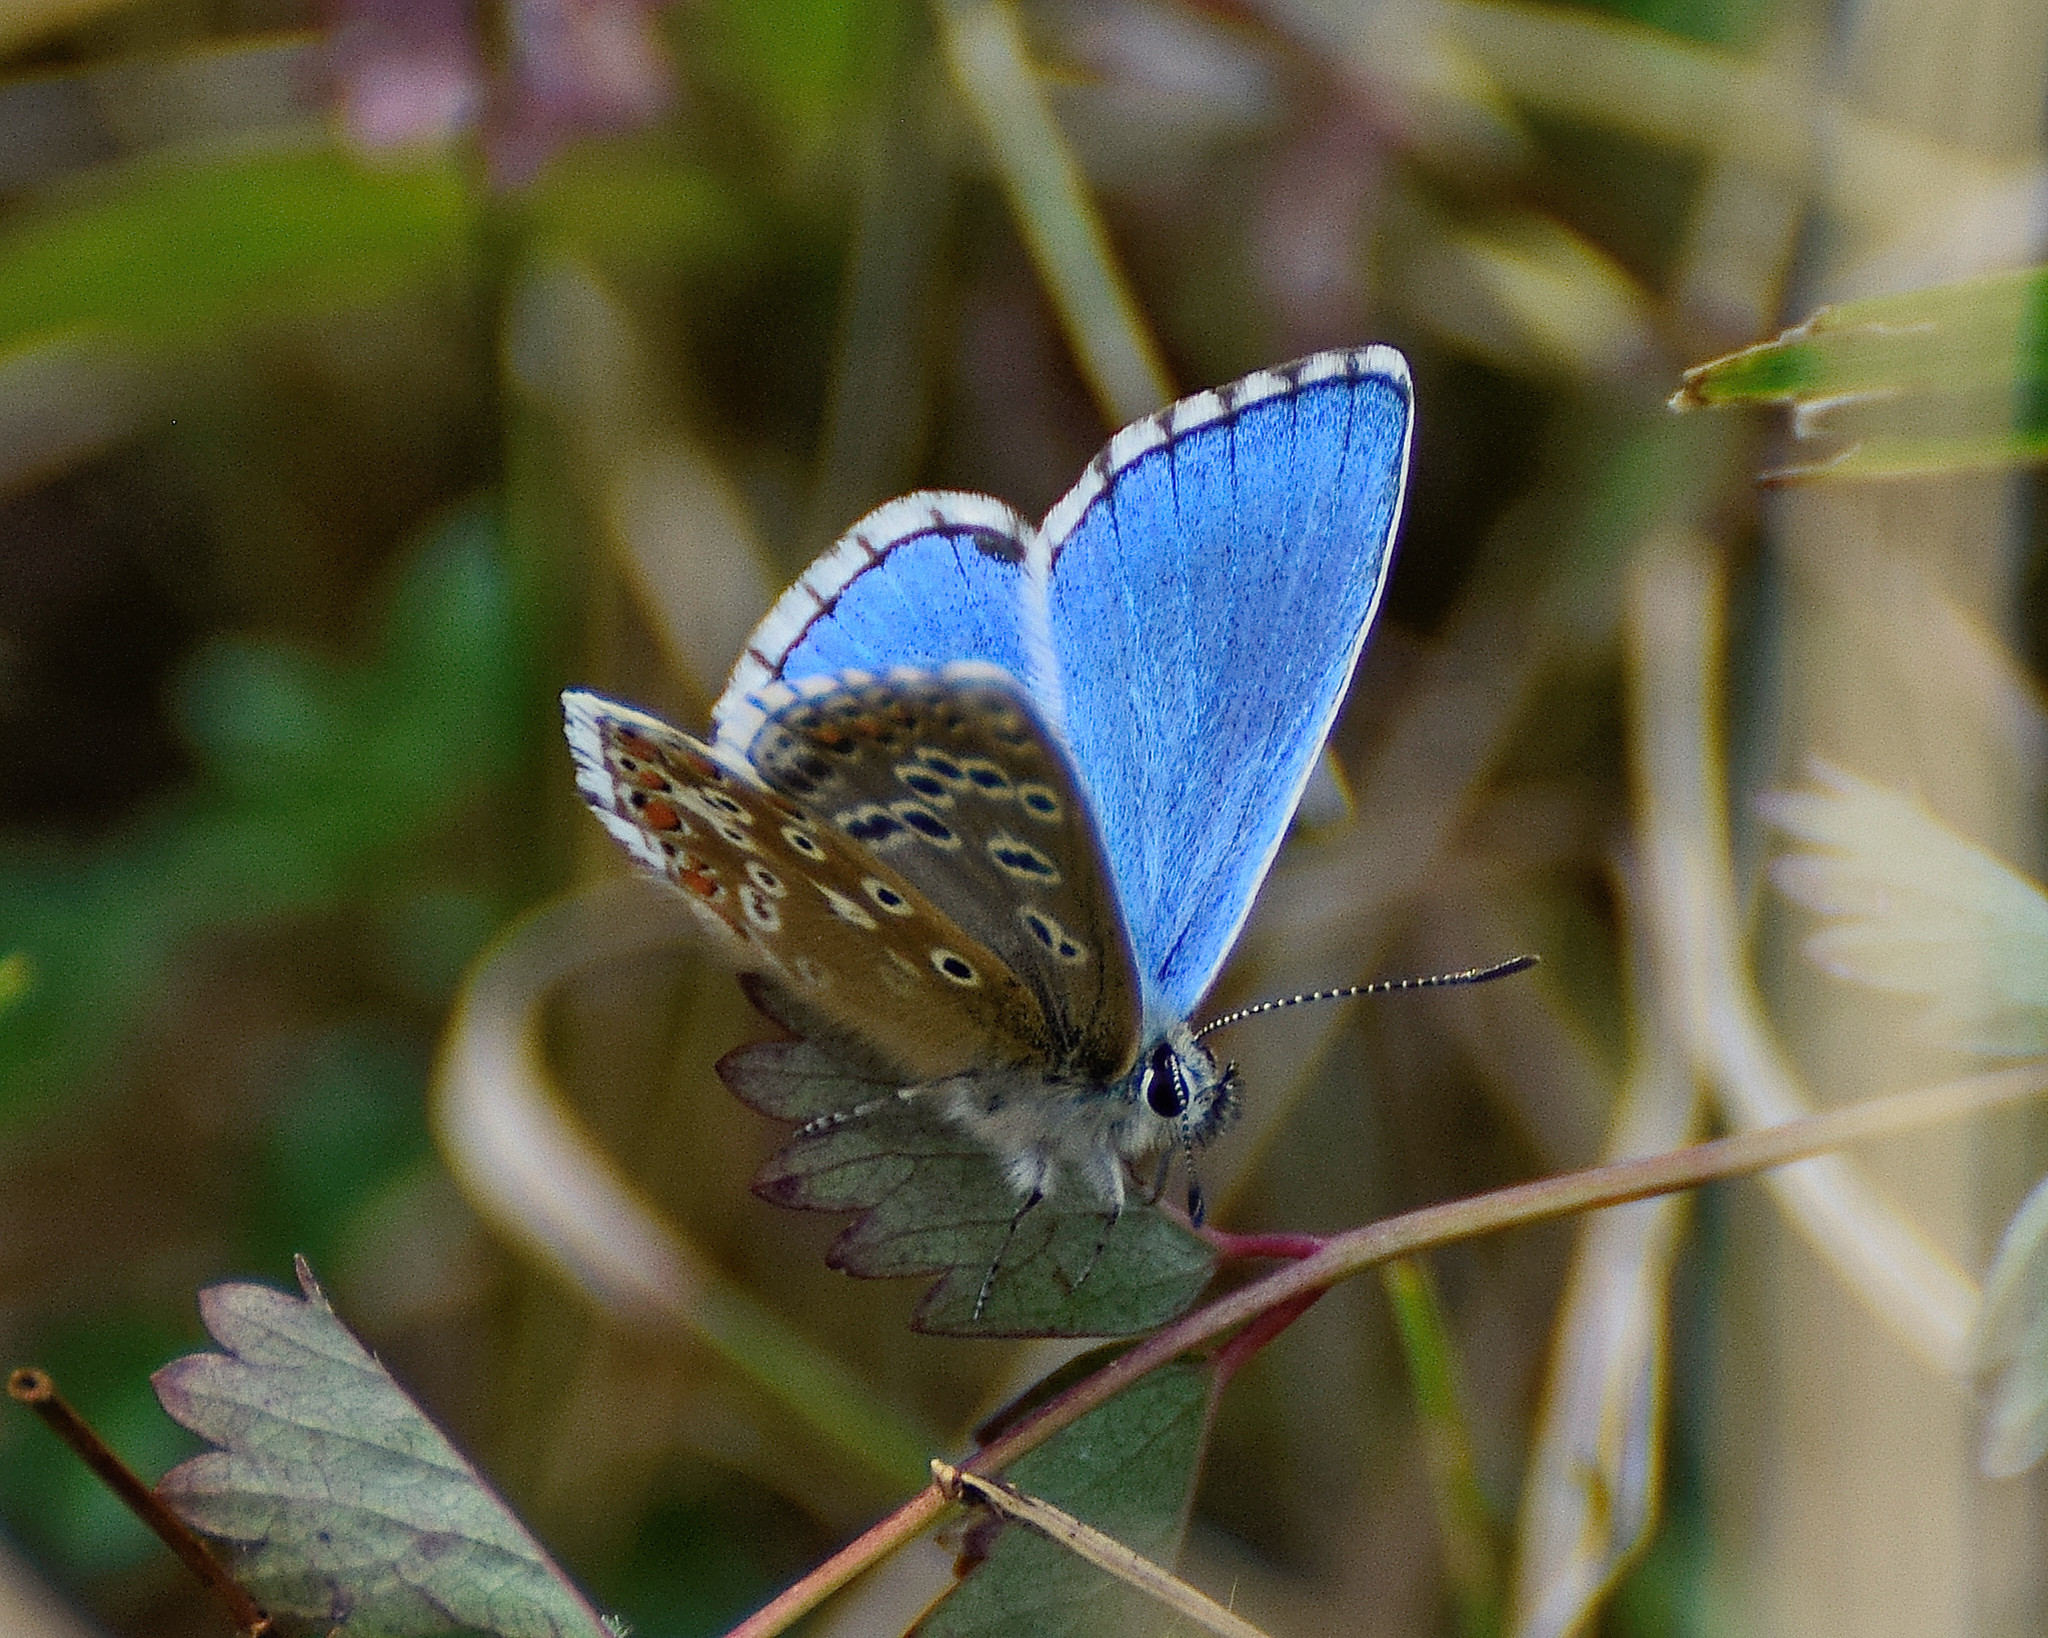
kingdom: Animalia
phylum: Arthropoda
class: Insecta
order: Lepidoptera
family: Lycaenidae
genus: Lysandra
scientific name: Lysandra bellargus
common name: Adonis blue
